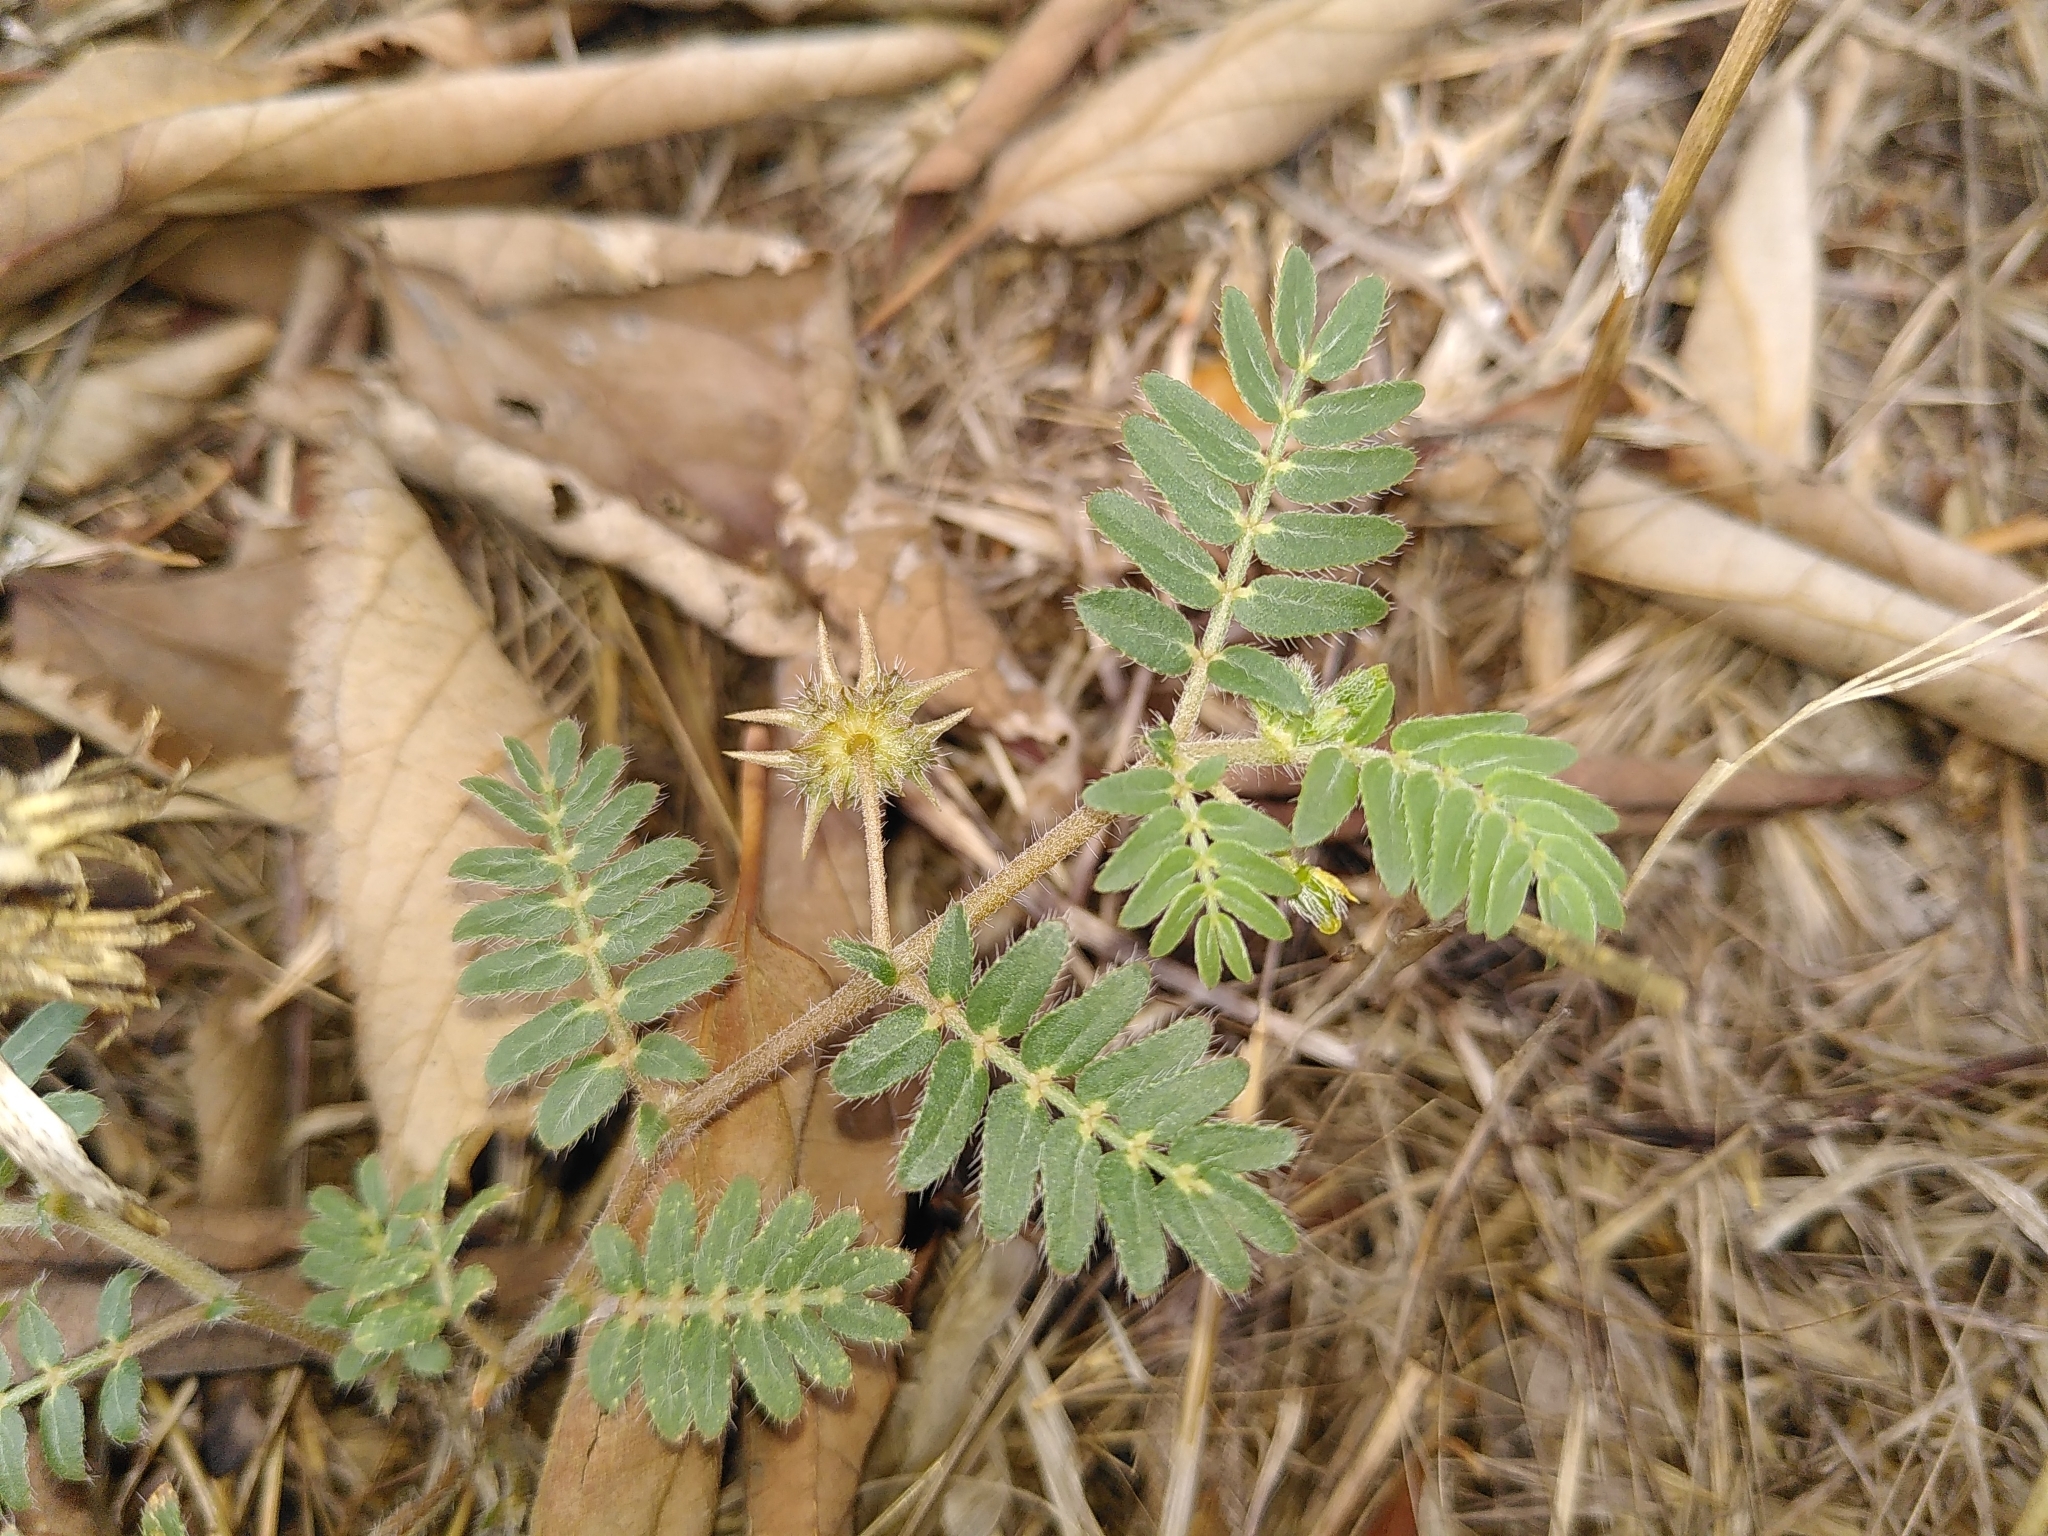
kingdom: Plantae
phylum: Tracheophyta
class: Magnoliopsida
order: Zygophyllales
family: Zygophyllaceae
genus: Tribulus
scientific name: Tribulus terrestris
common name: Puncturevine
